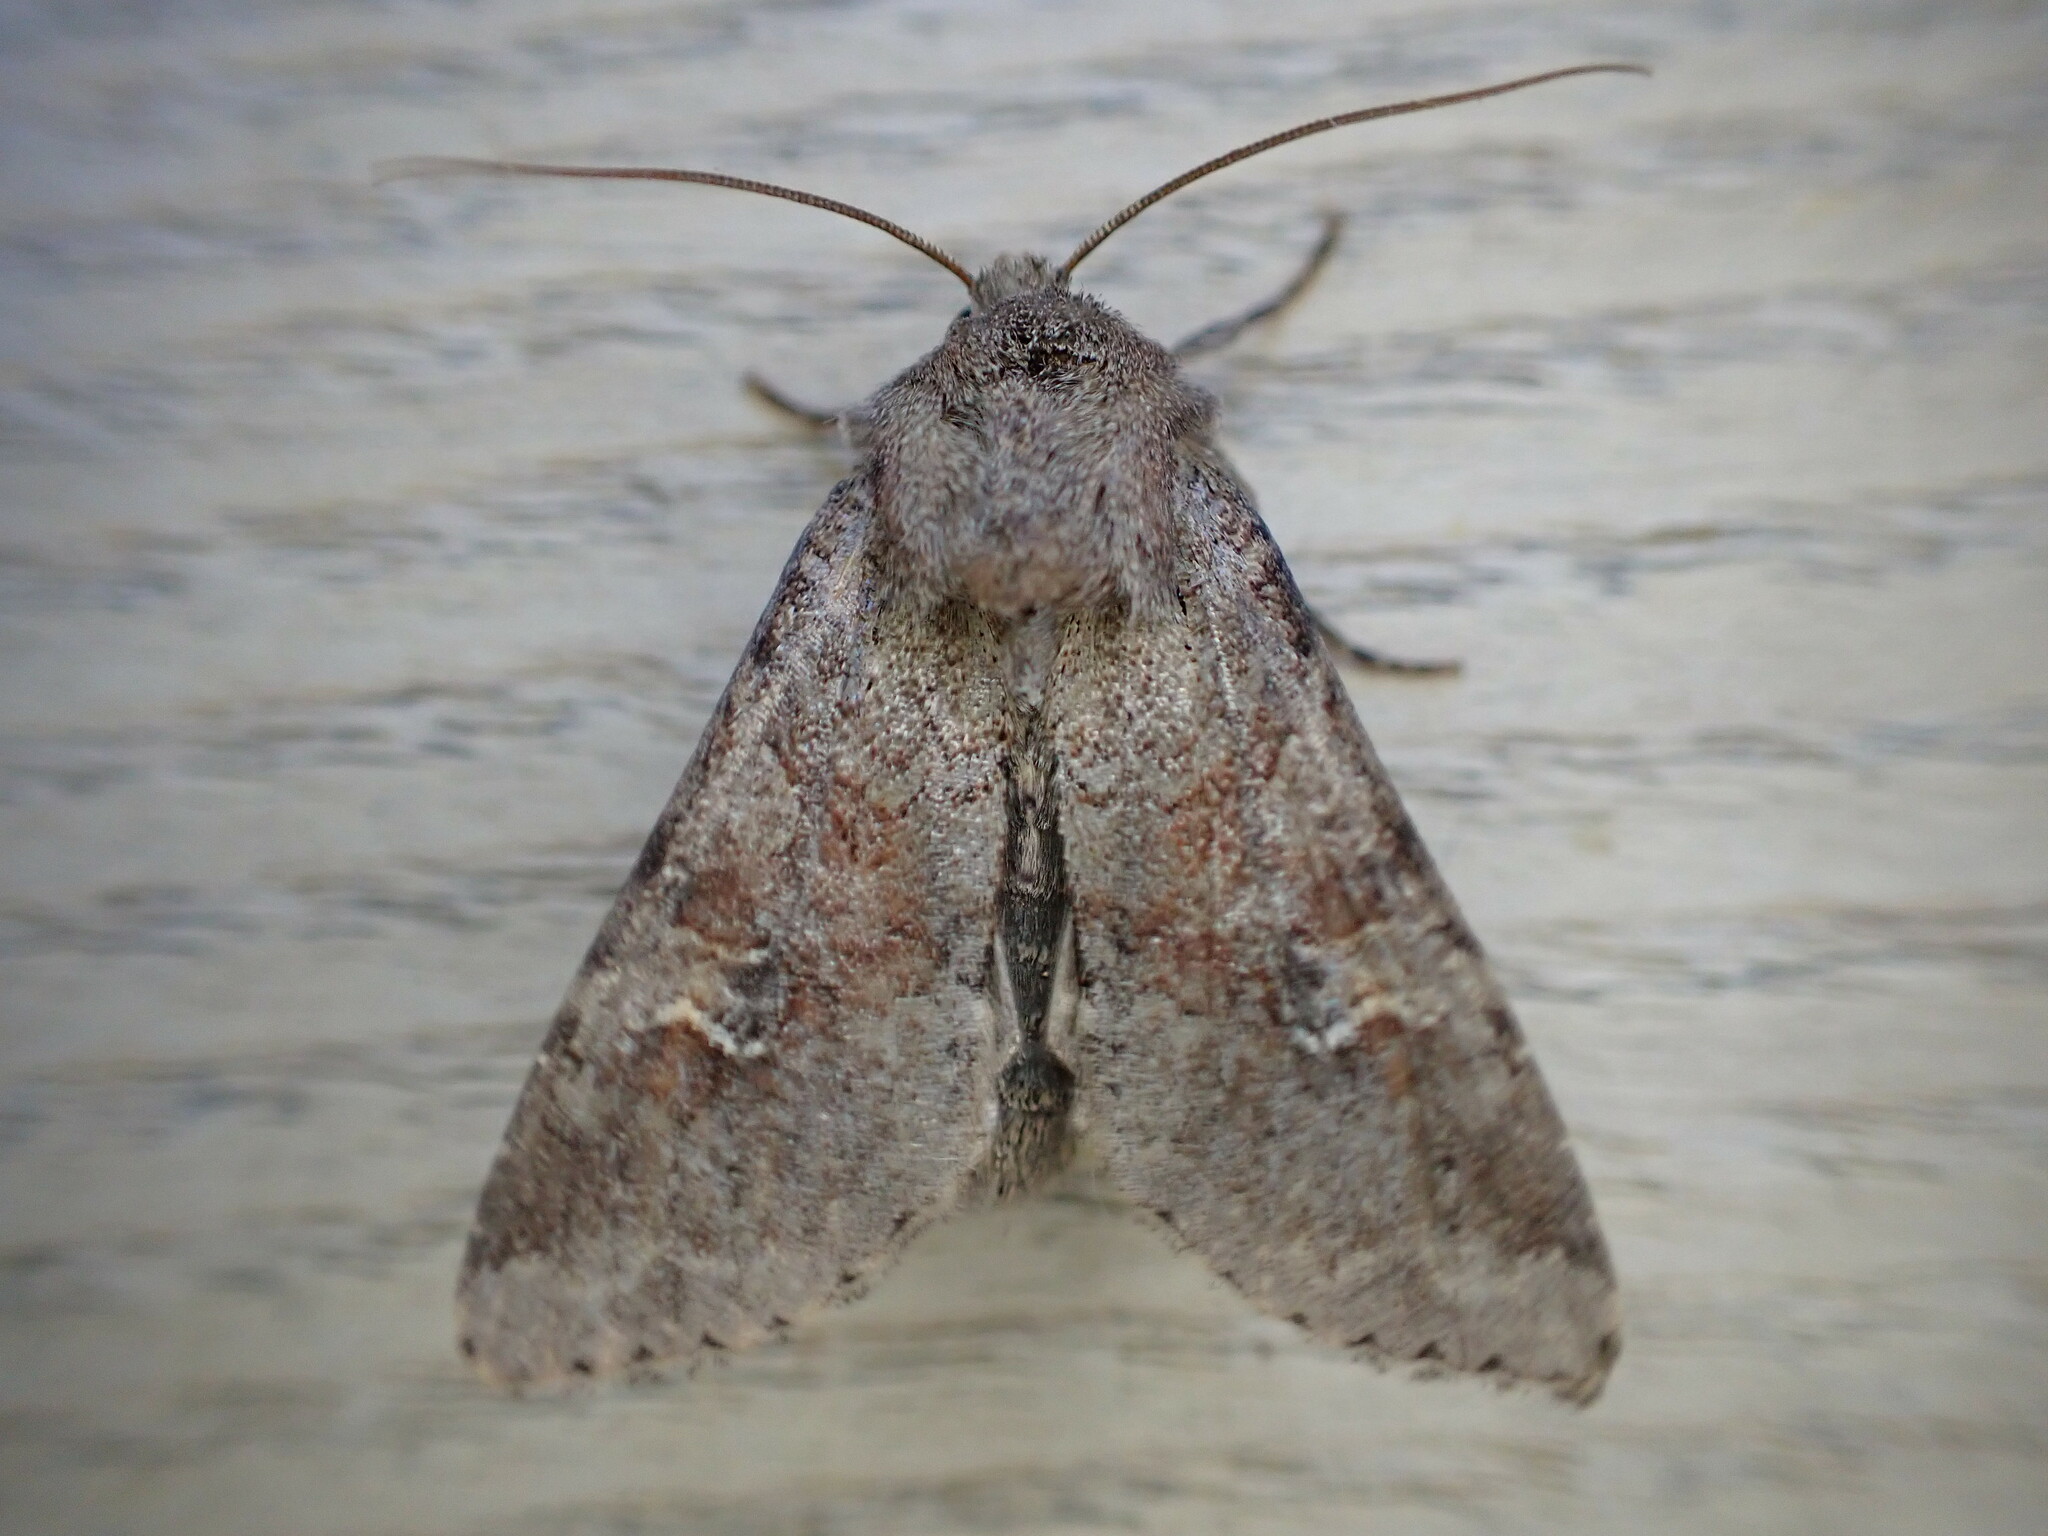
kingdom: Animalia
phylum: Arthropoda
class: Insecta
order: Lepidoptera
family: Noctuidae
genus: Apamea
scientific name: Apamea sordens
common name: Rustic shoulder-knot
